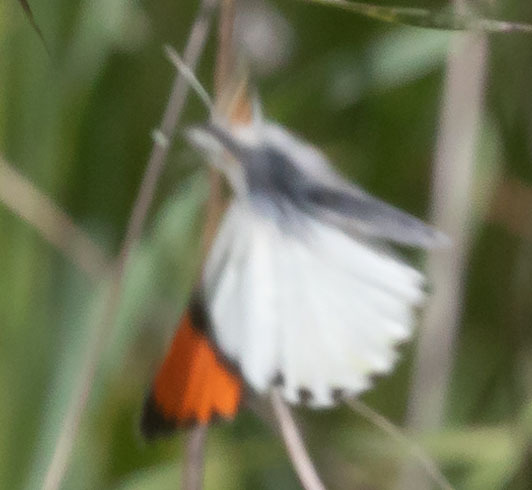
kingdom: Animalia
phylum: Arthropoda
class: Insecta
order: Lepidoptera
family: Pieridae
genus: Anthocharis
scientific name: Anthocharis sara
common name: Sara's orangetip
